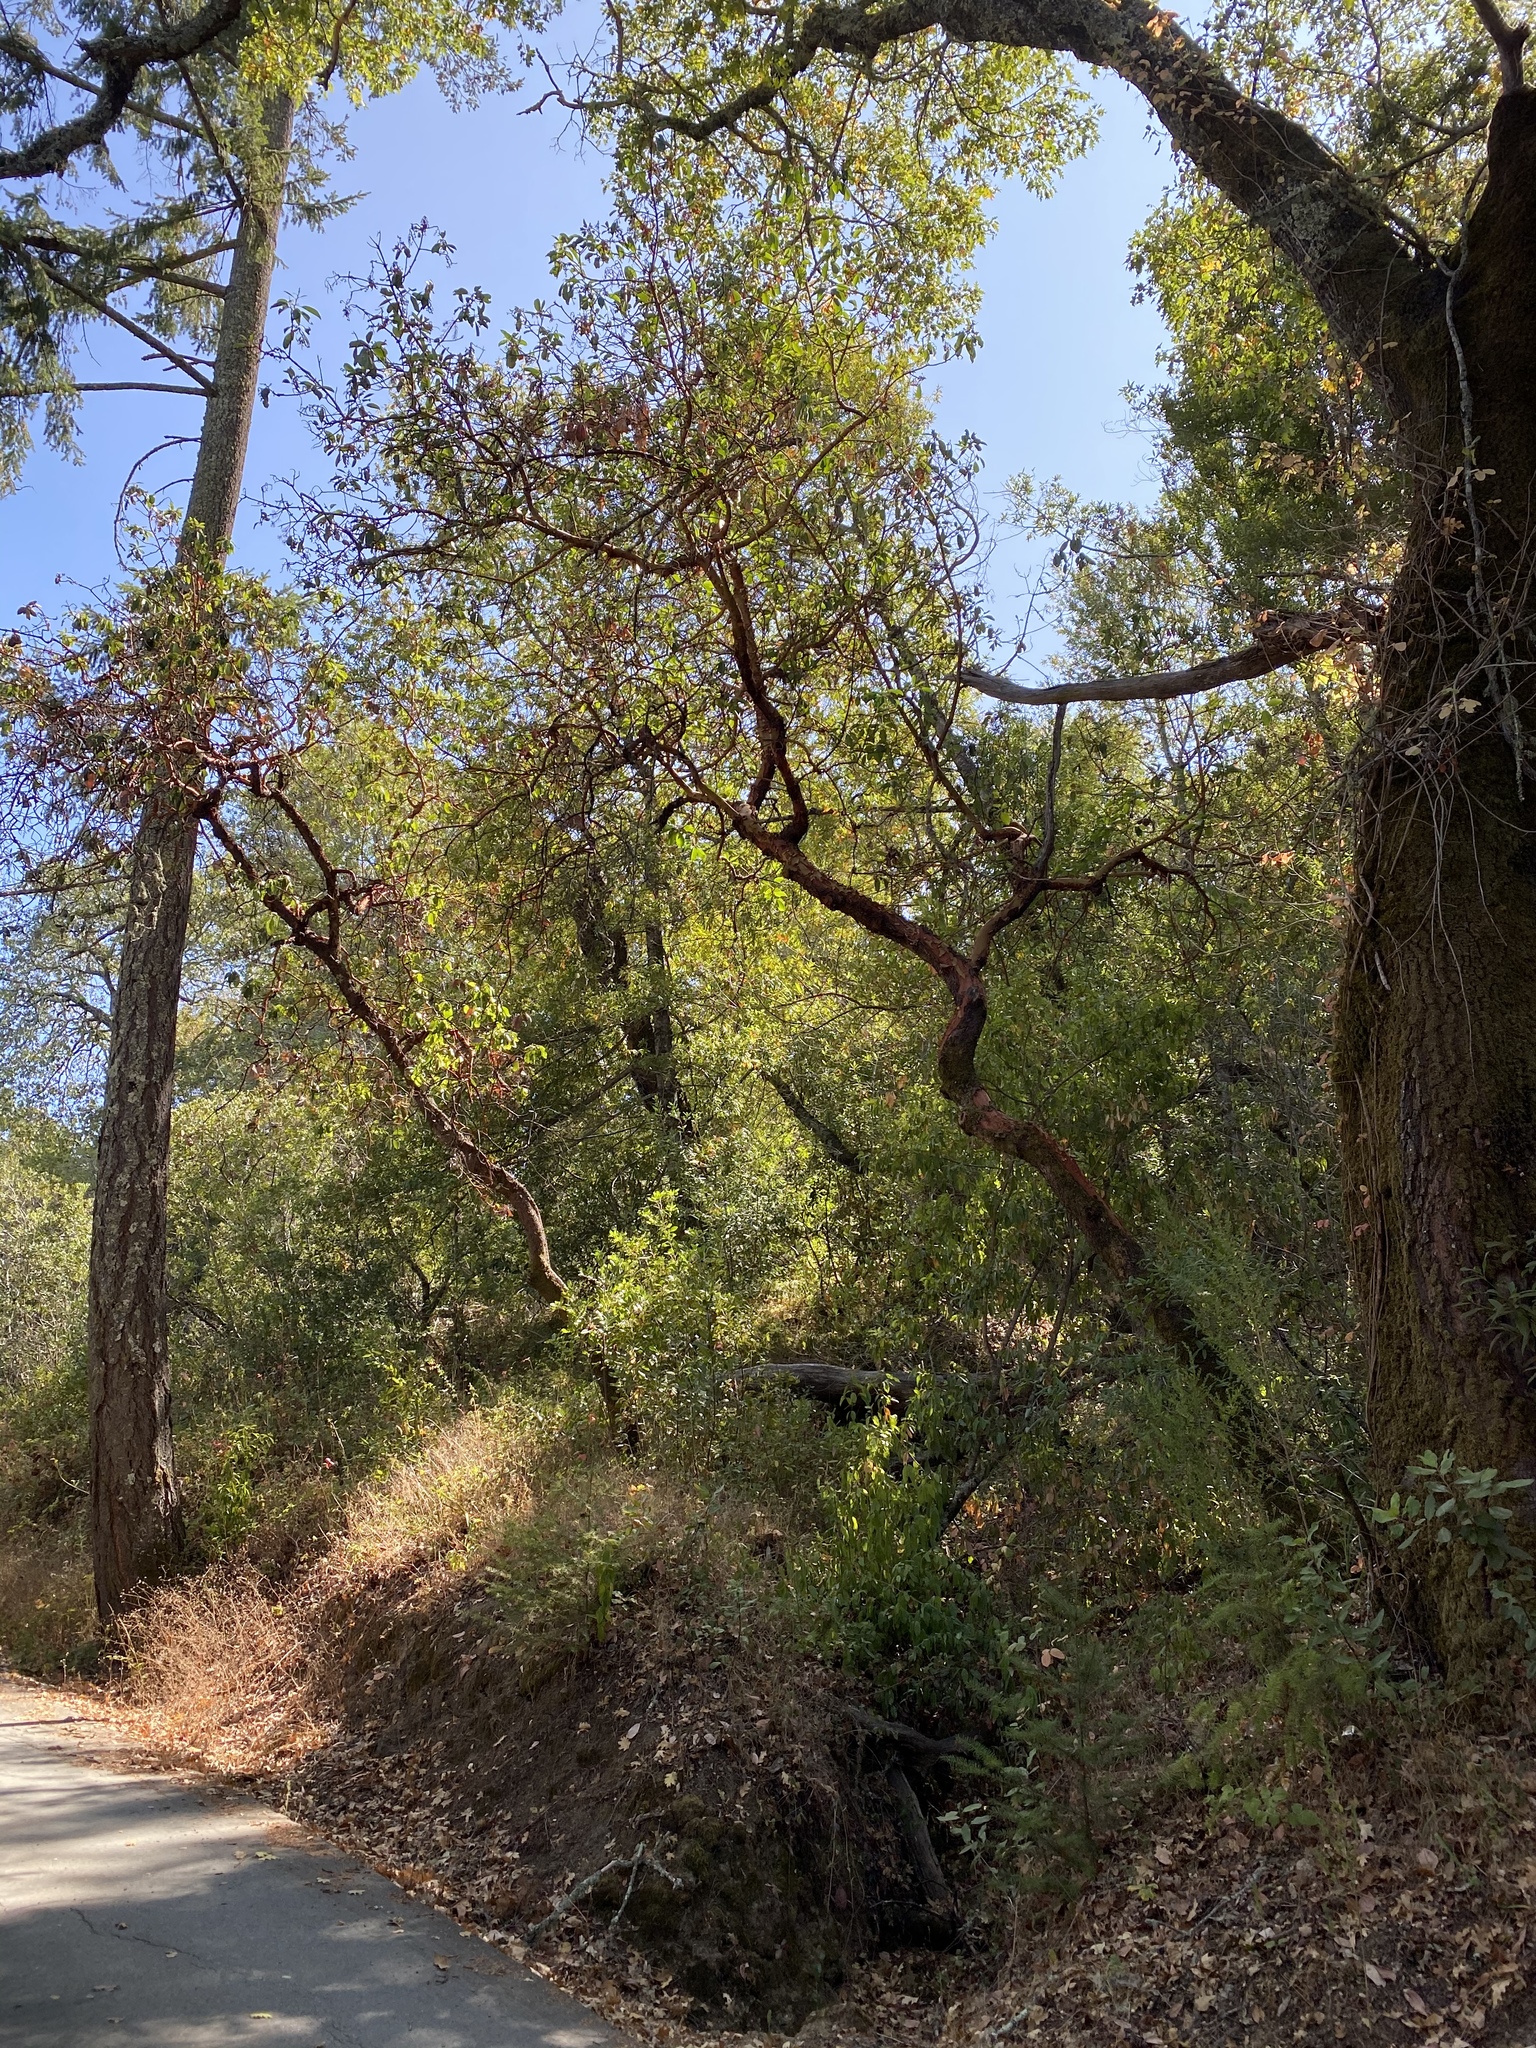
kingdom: Plantae
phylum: Tracheophyta
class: Magnoliopsida
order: Ericales
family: Ericaceae
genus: Arbutus
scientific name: Arbutus menziesii
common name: Pacific madrone
